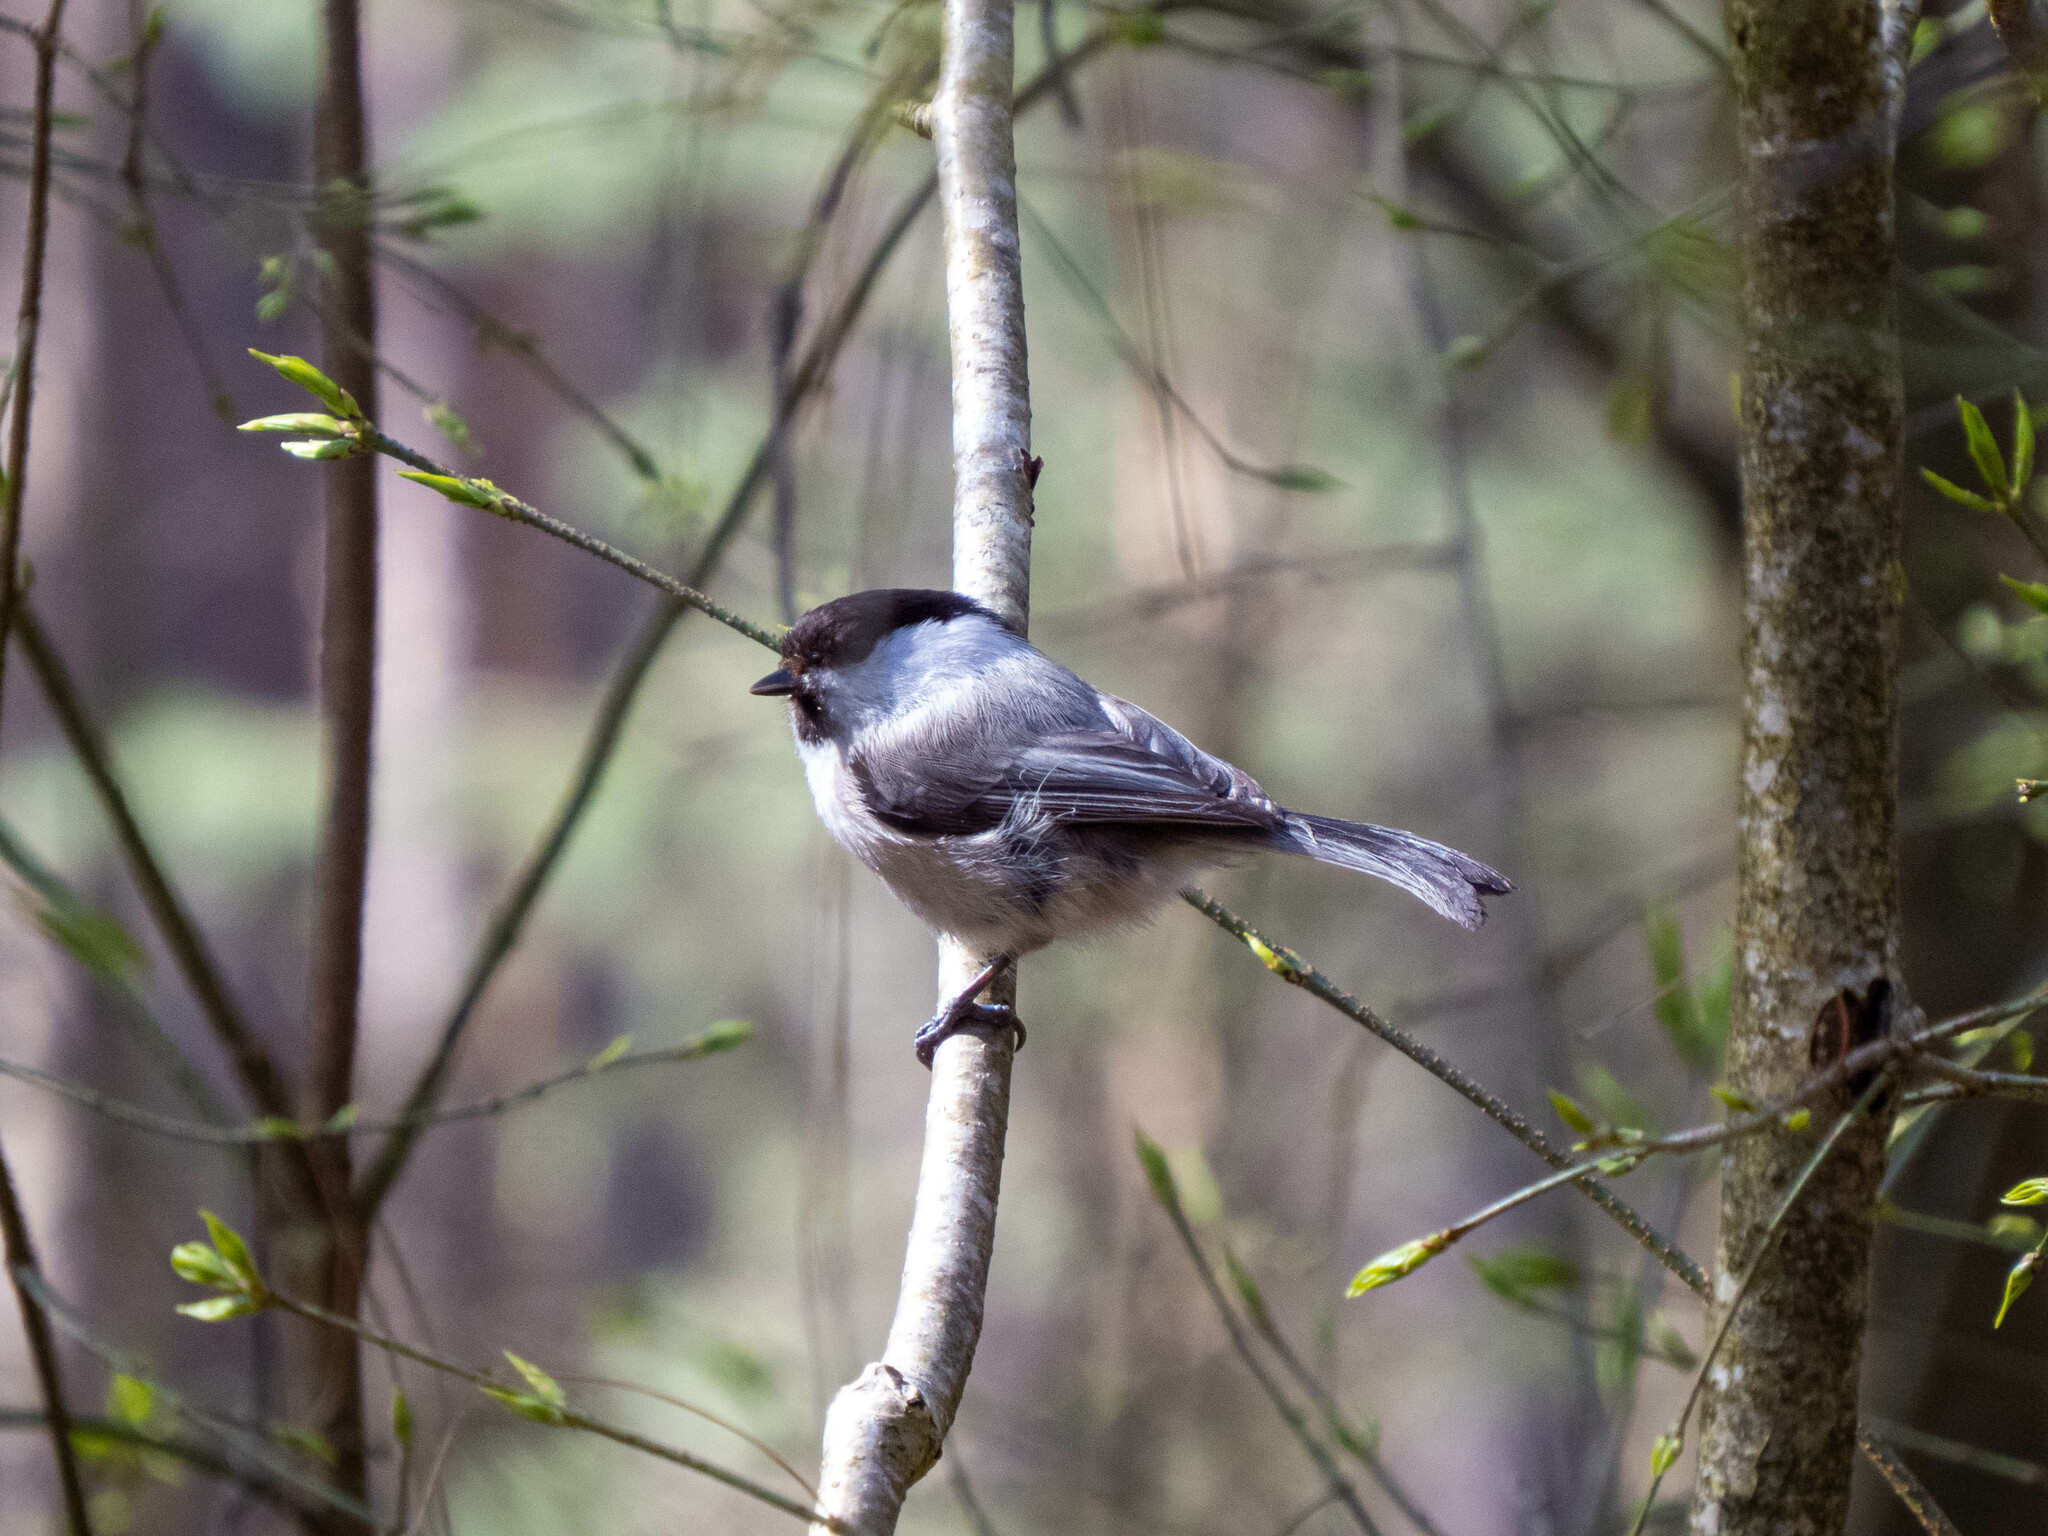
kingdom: Animalia
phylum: Chordata
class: Aves
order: Passeriformes
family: Paridae
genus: Poecile
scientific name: Poecile montanus
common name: Willow tit
